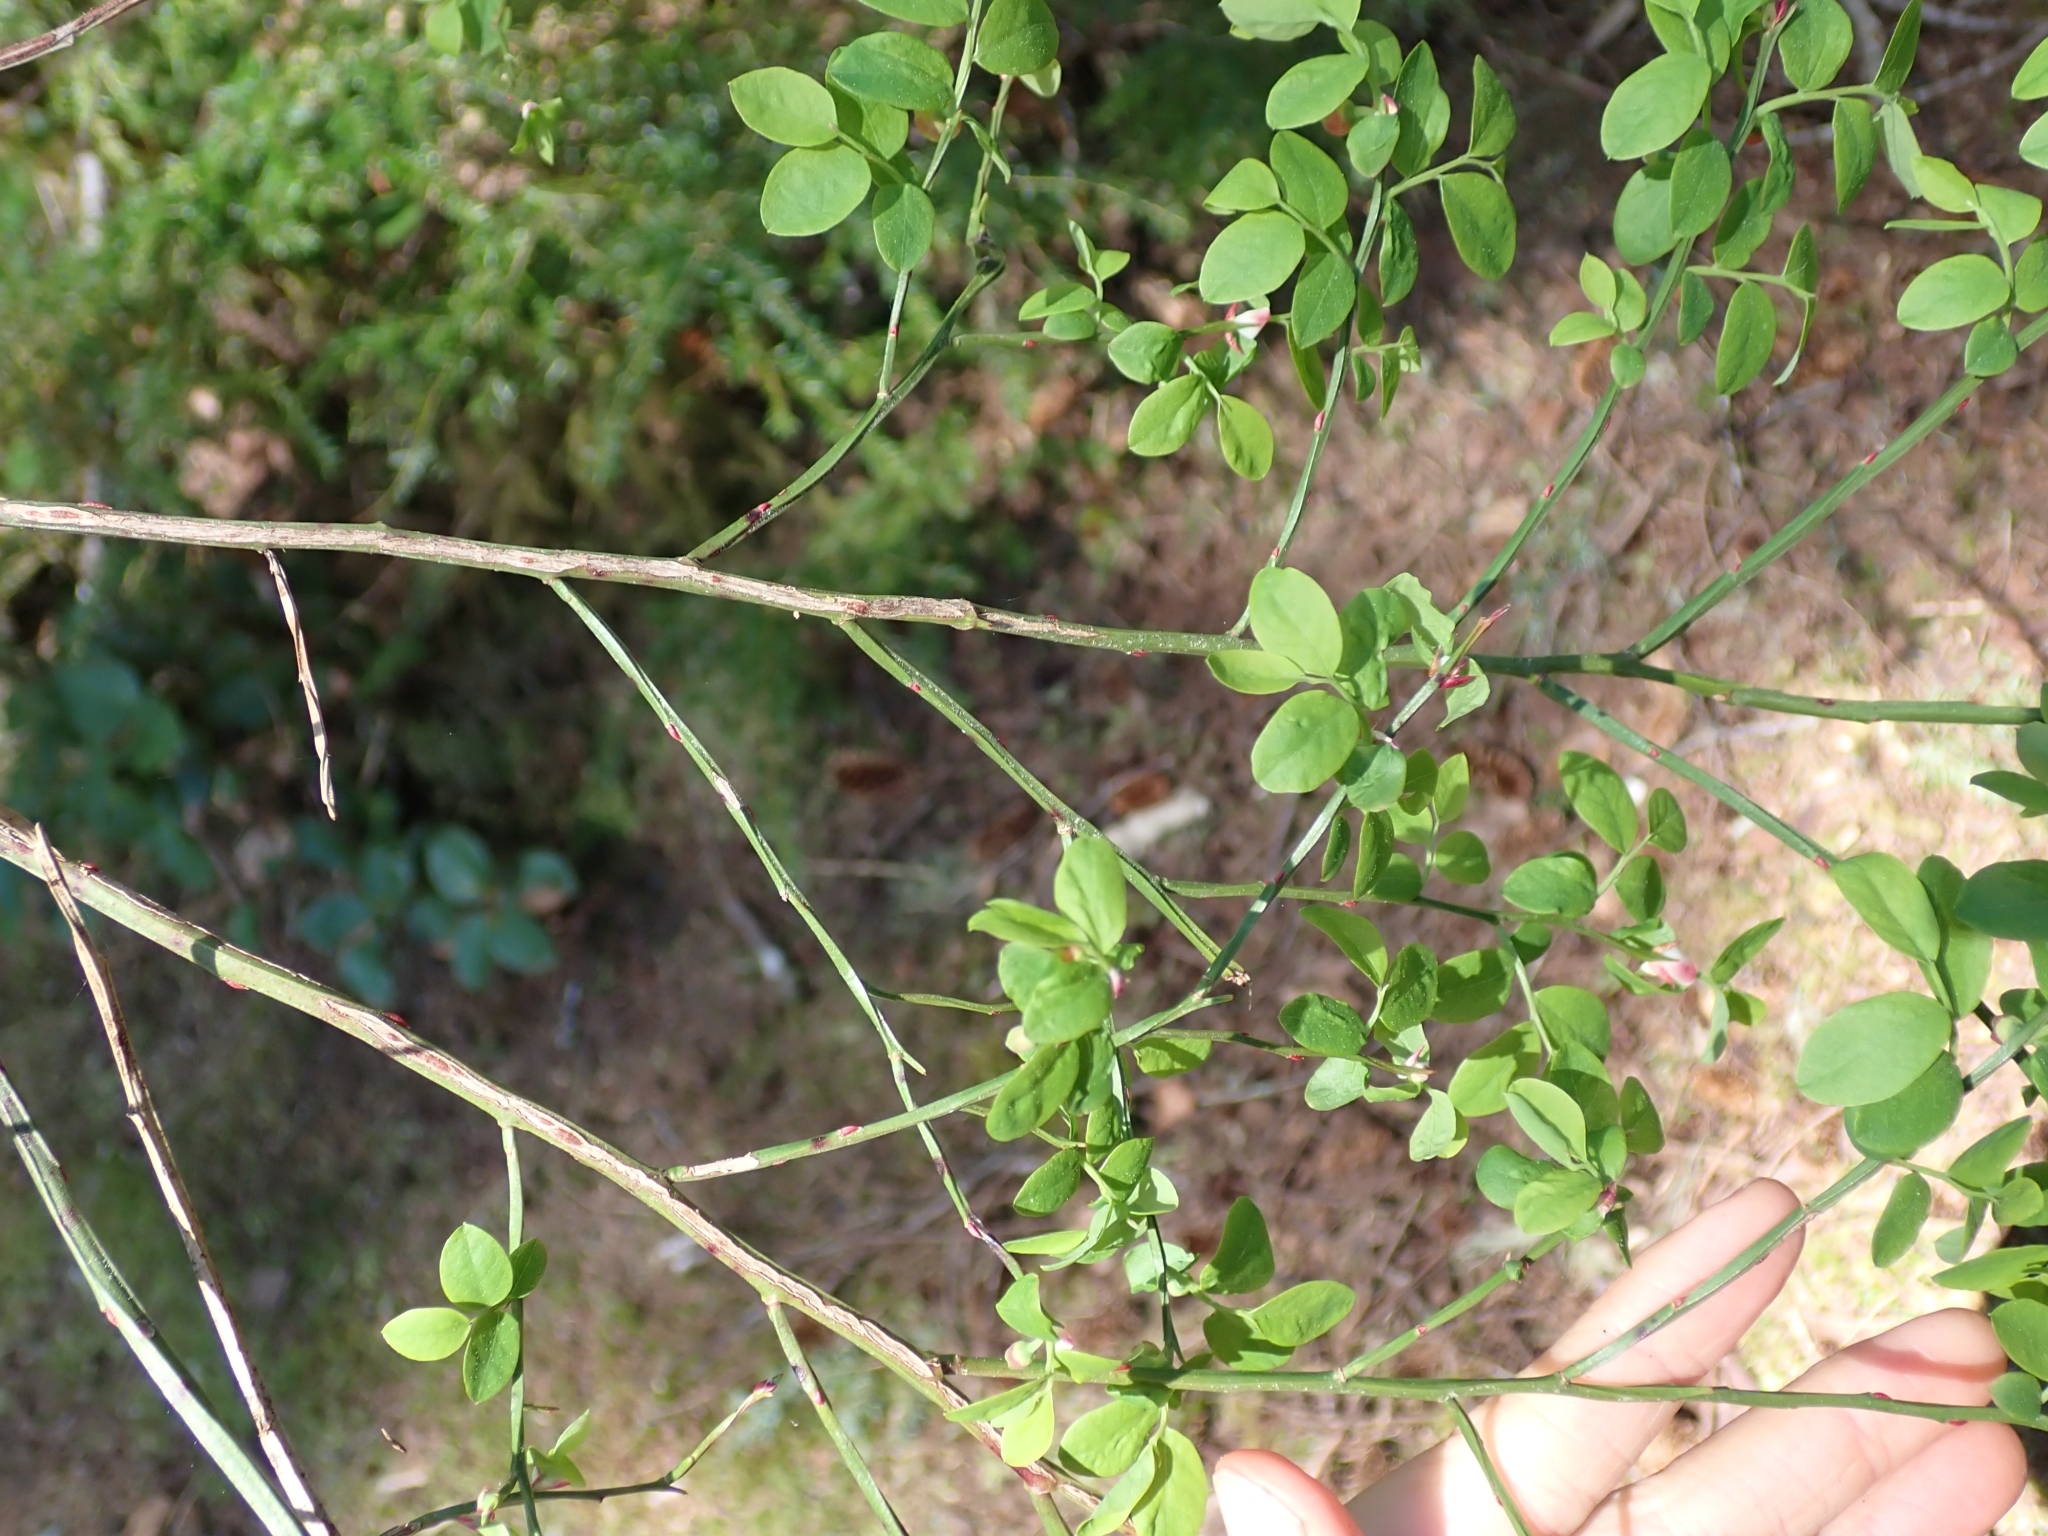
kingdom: Plantae
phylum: Tracheophyta
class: Magnoliopsida
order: Ericales
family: Ericaceae
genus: Vaccinium
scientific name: Vaccinium parvifolium
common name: Red-huckleberry
